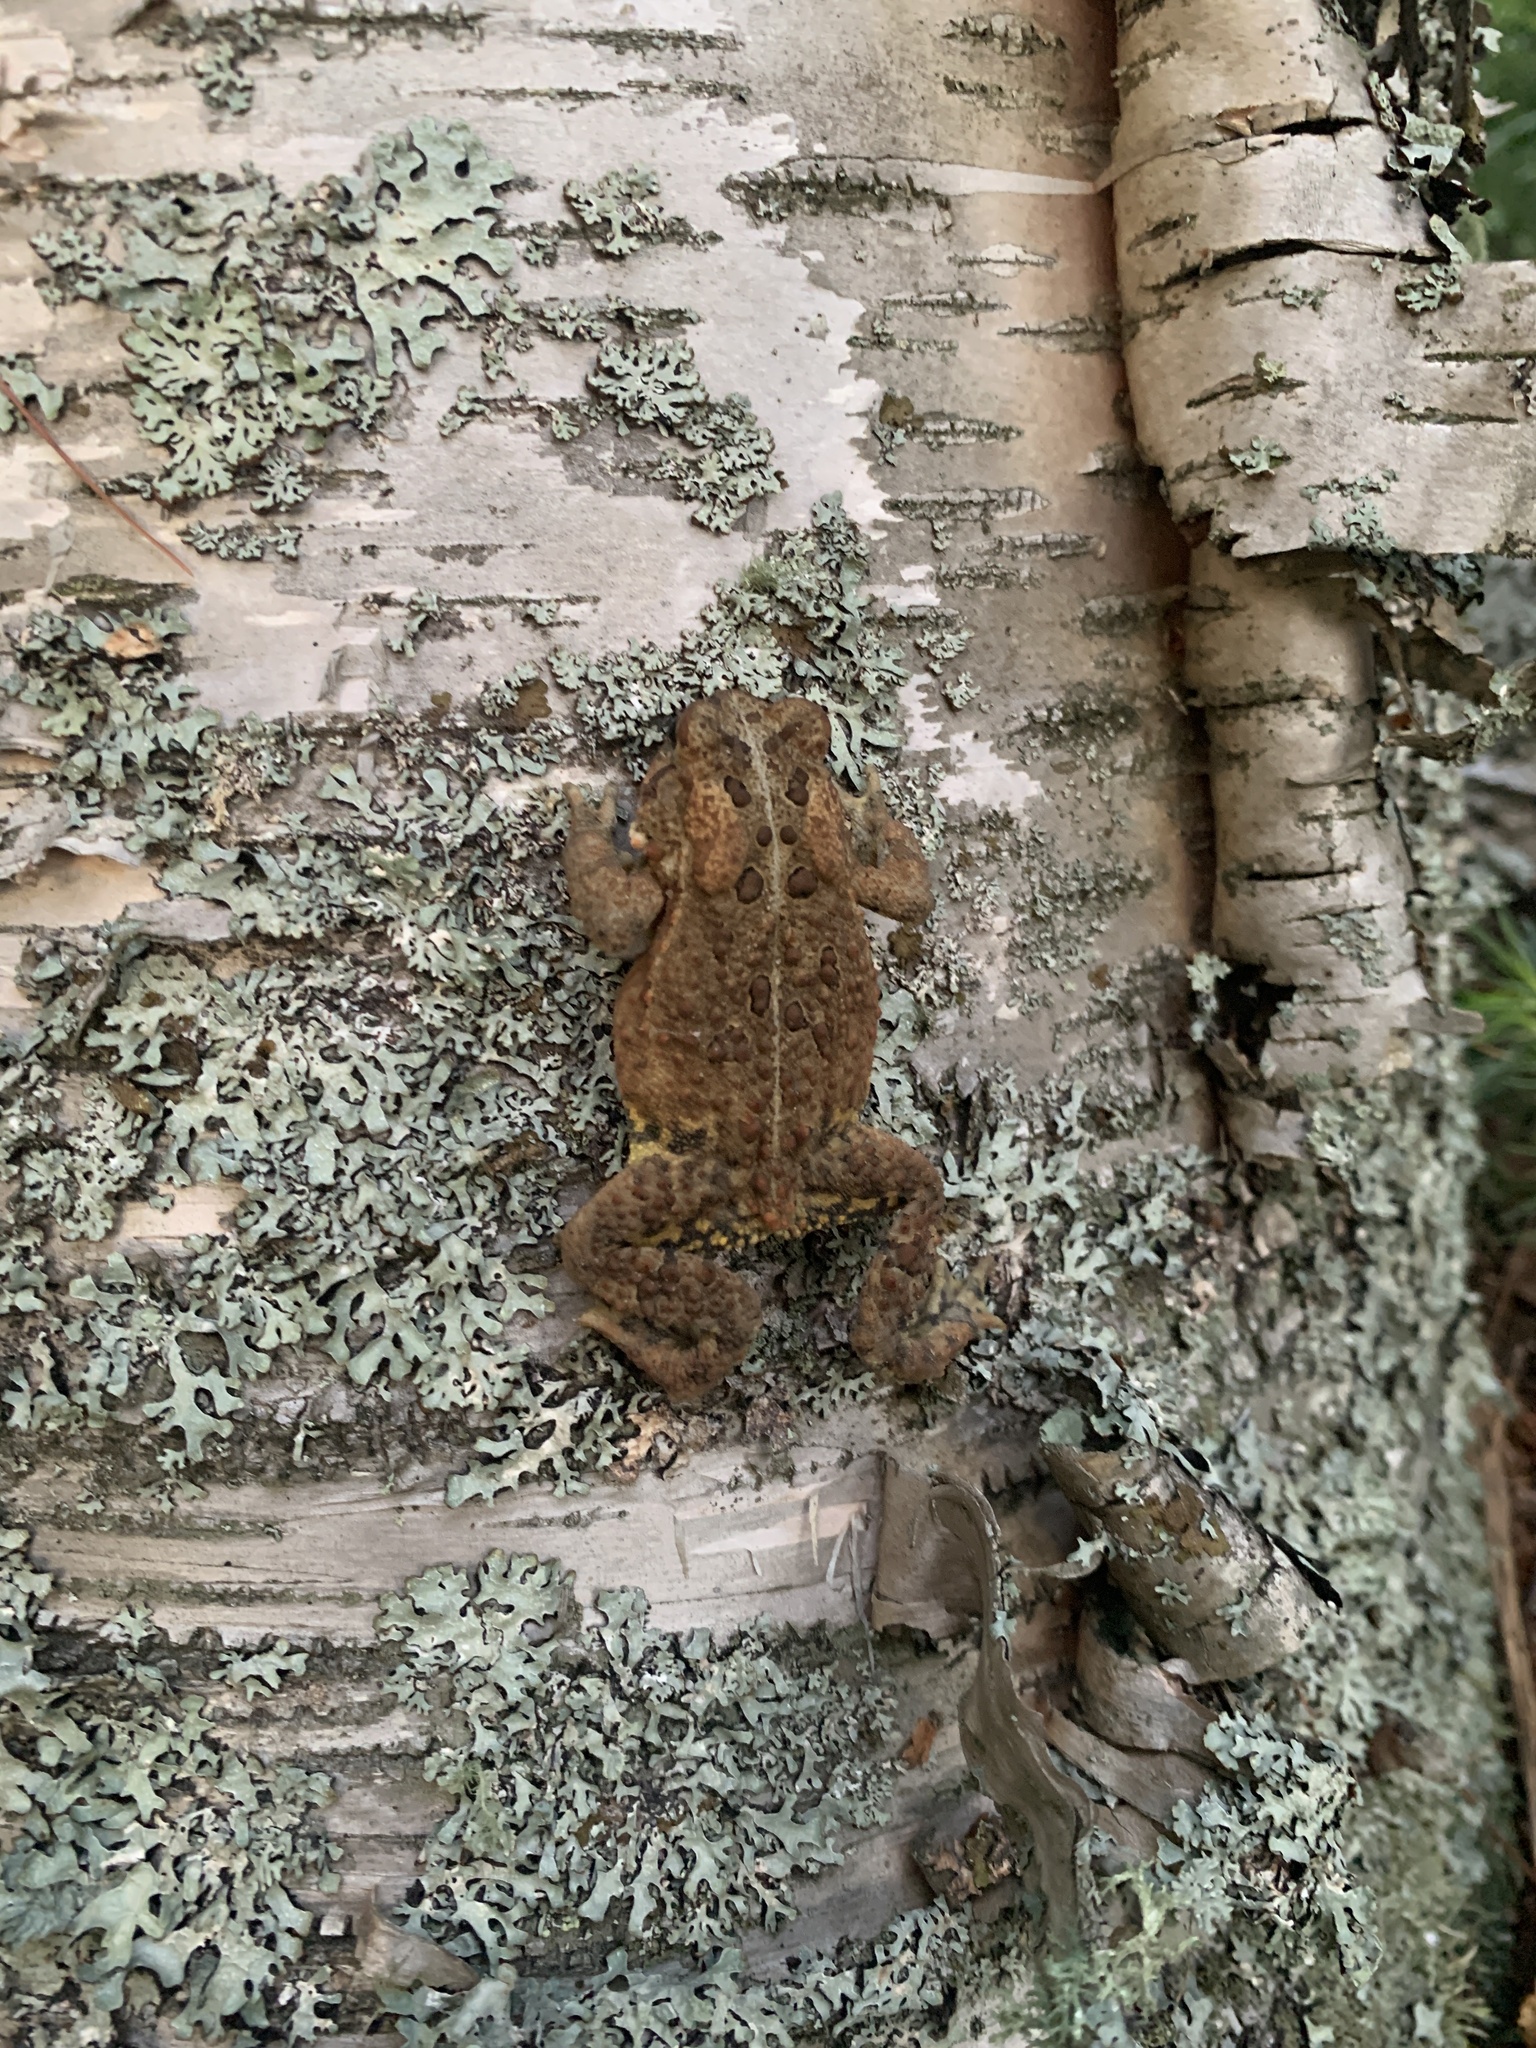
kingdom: Animalia
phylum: Chordata
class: Amphibia
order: Anura
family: Bufonidae
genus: Anaxyrus
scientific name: Anaxyrus americanus
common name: American toad
